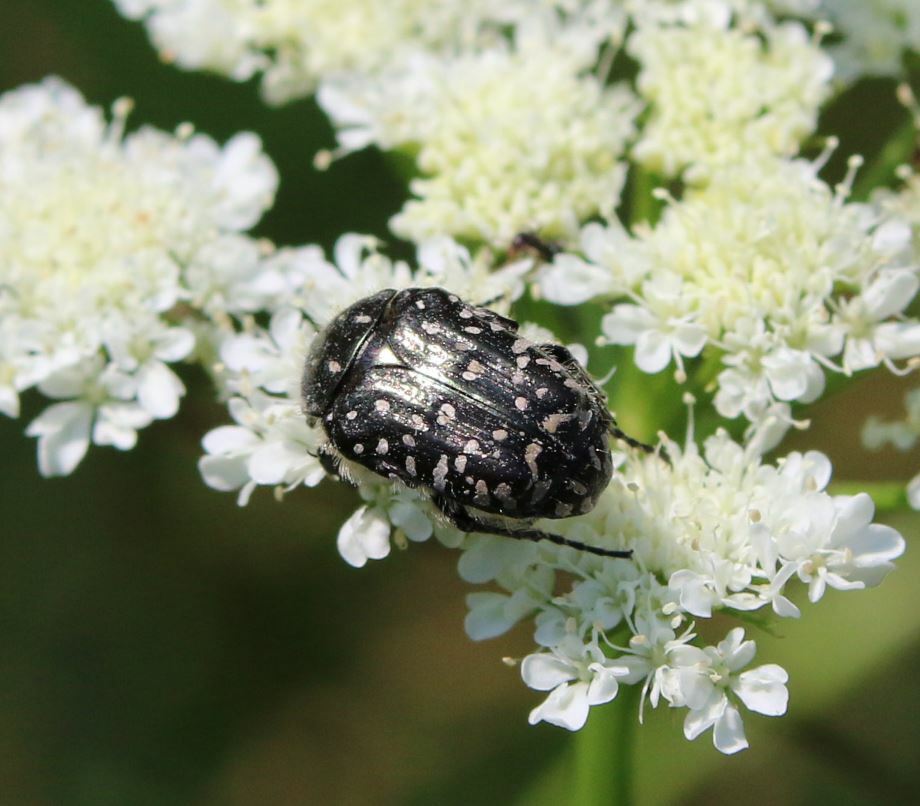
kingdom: Animalia
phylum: Arthropoda
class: Insecta
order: Coleoptera
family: Scarabaeidae
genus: Oxythyrea
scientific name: Oxythyrea funesta
